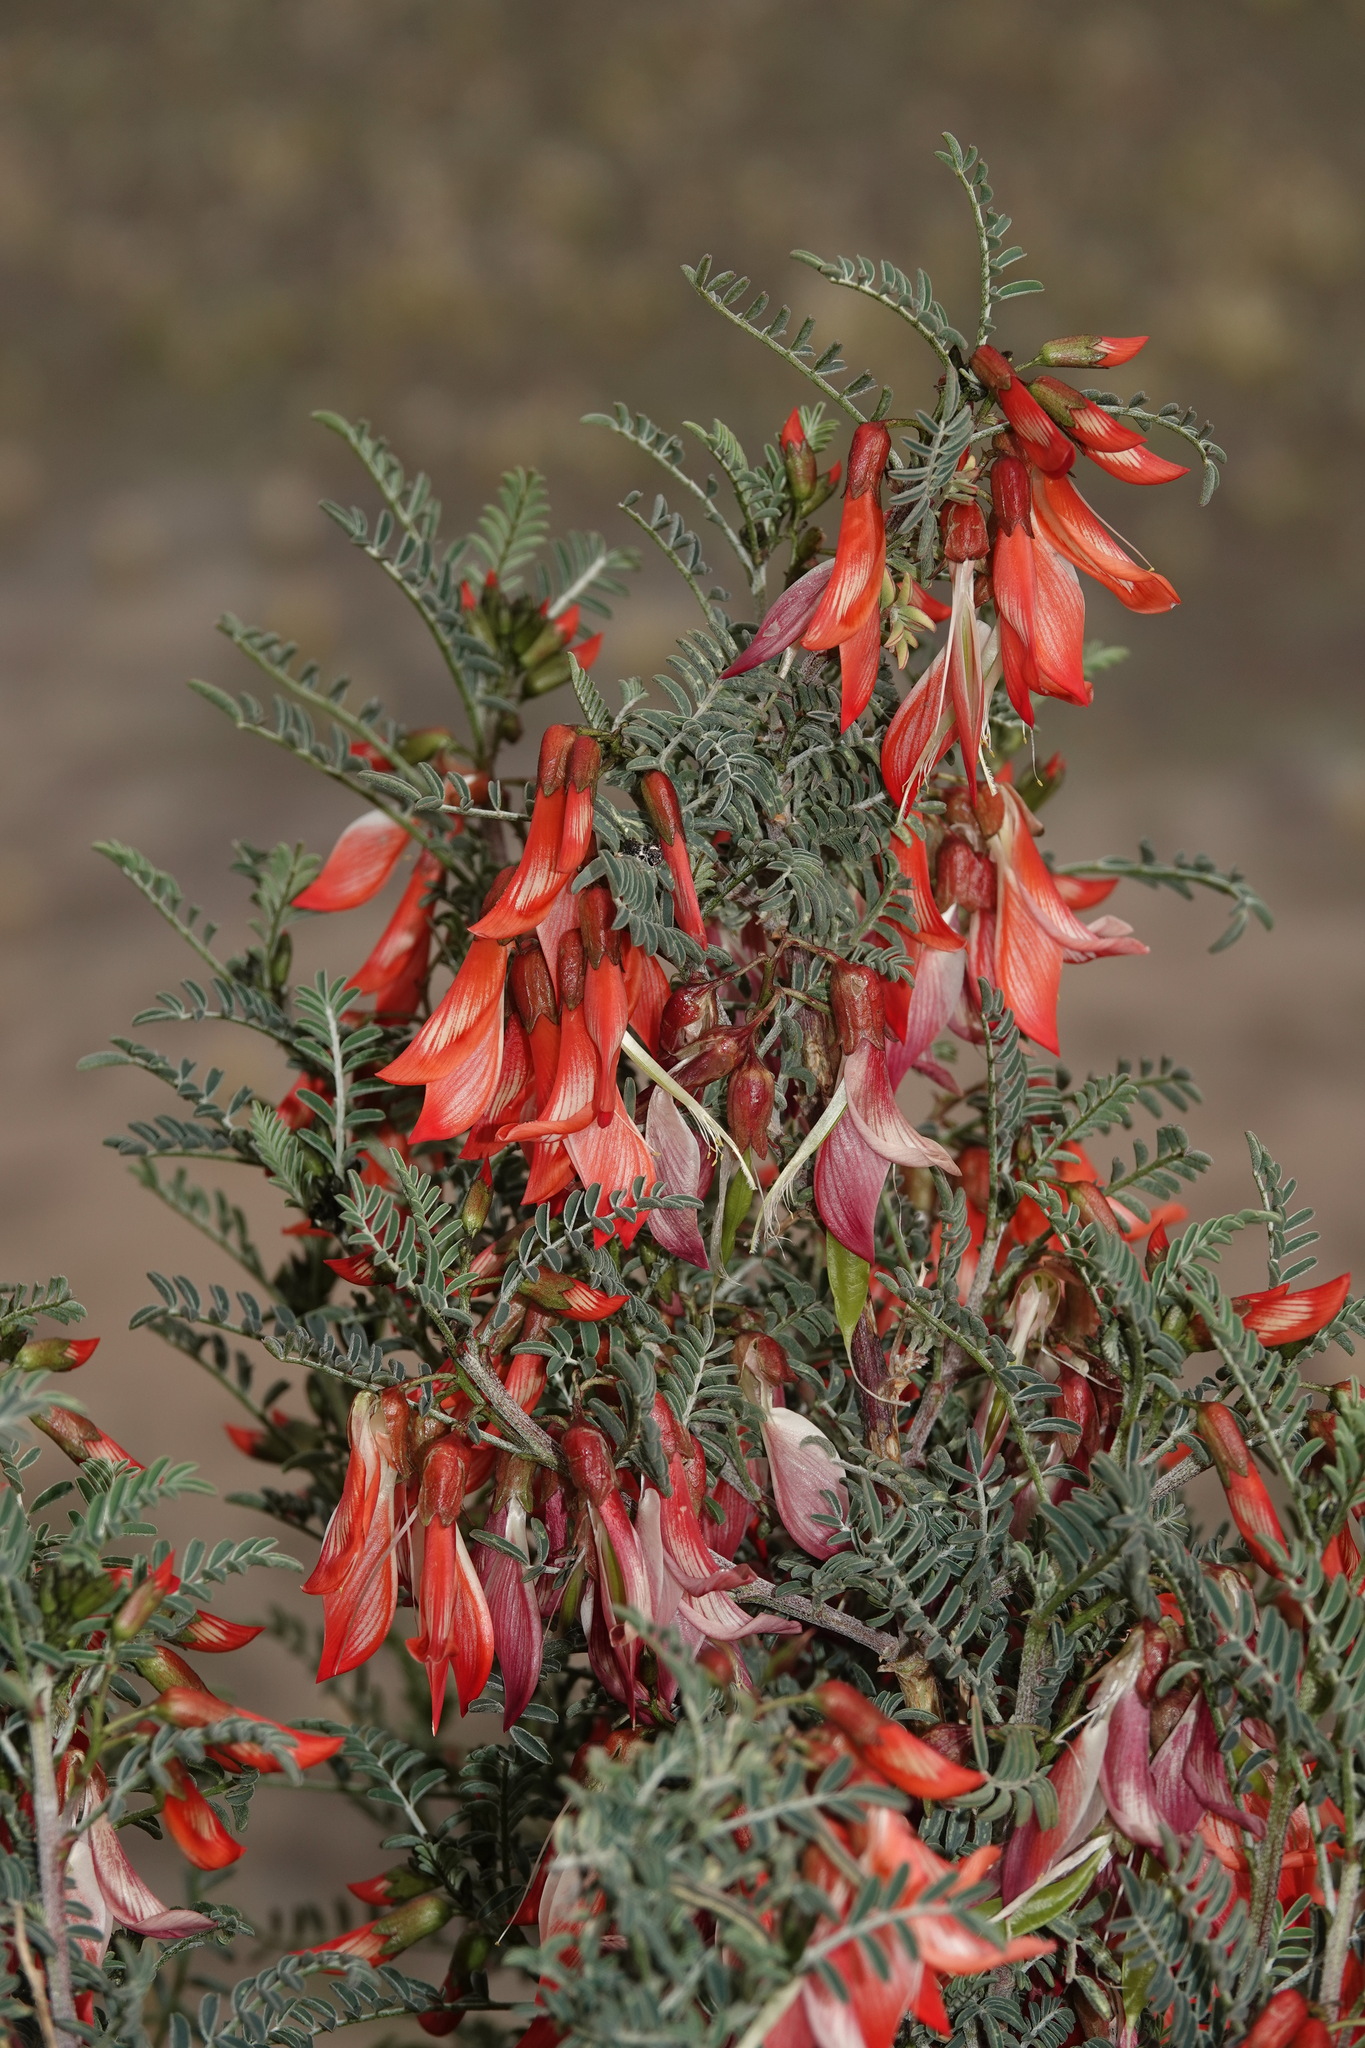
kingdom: Plantae
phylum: Tracheophyta
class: Magnoliopsida
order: Fabales
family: Fabaceae
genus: Lessertia
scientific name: Lessertia frutescens
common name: Balloon-pea
